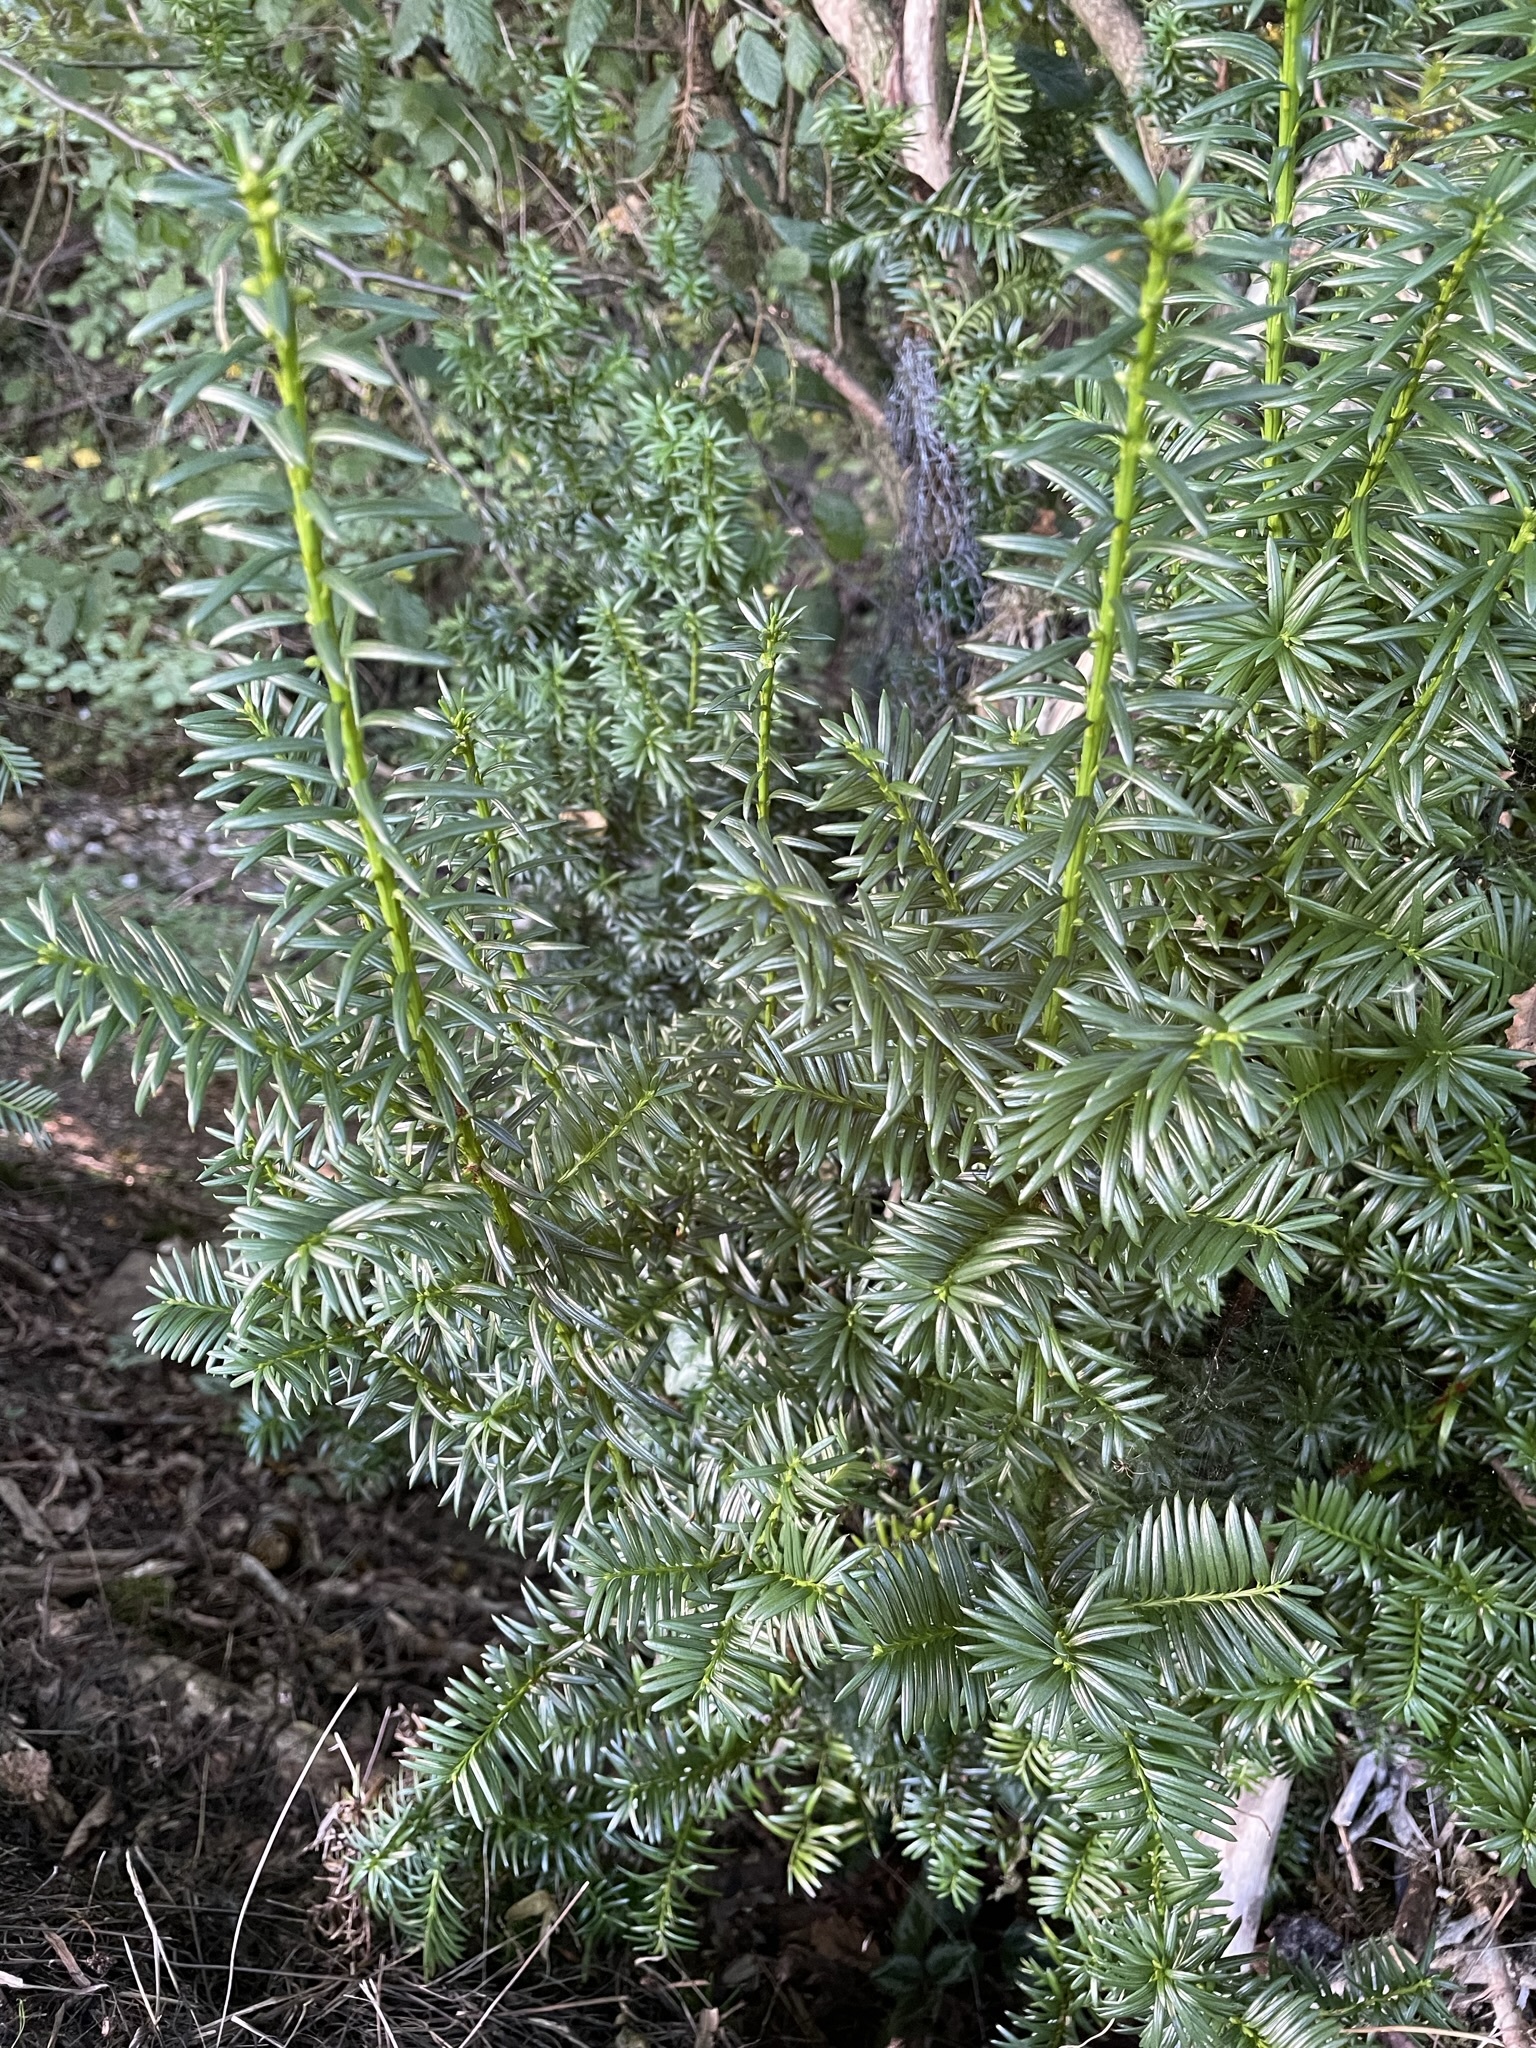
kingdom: Plantae
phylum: Tracheophyta
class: Pinopsida
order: Pinales
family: Taxaceae
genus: Taxus
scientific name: Taxus baccata
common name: Yew
